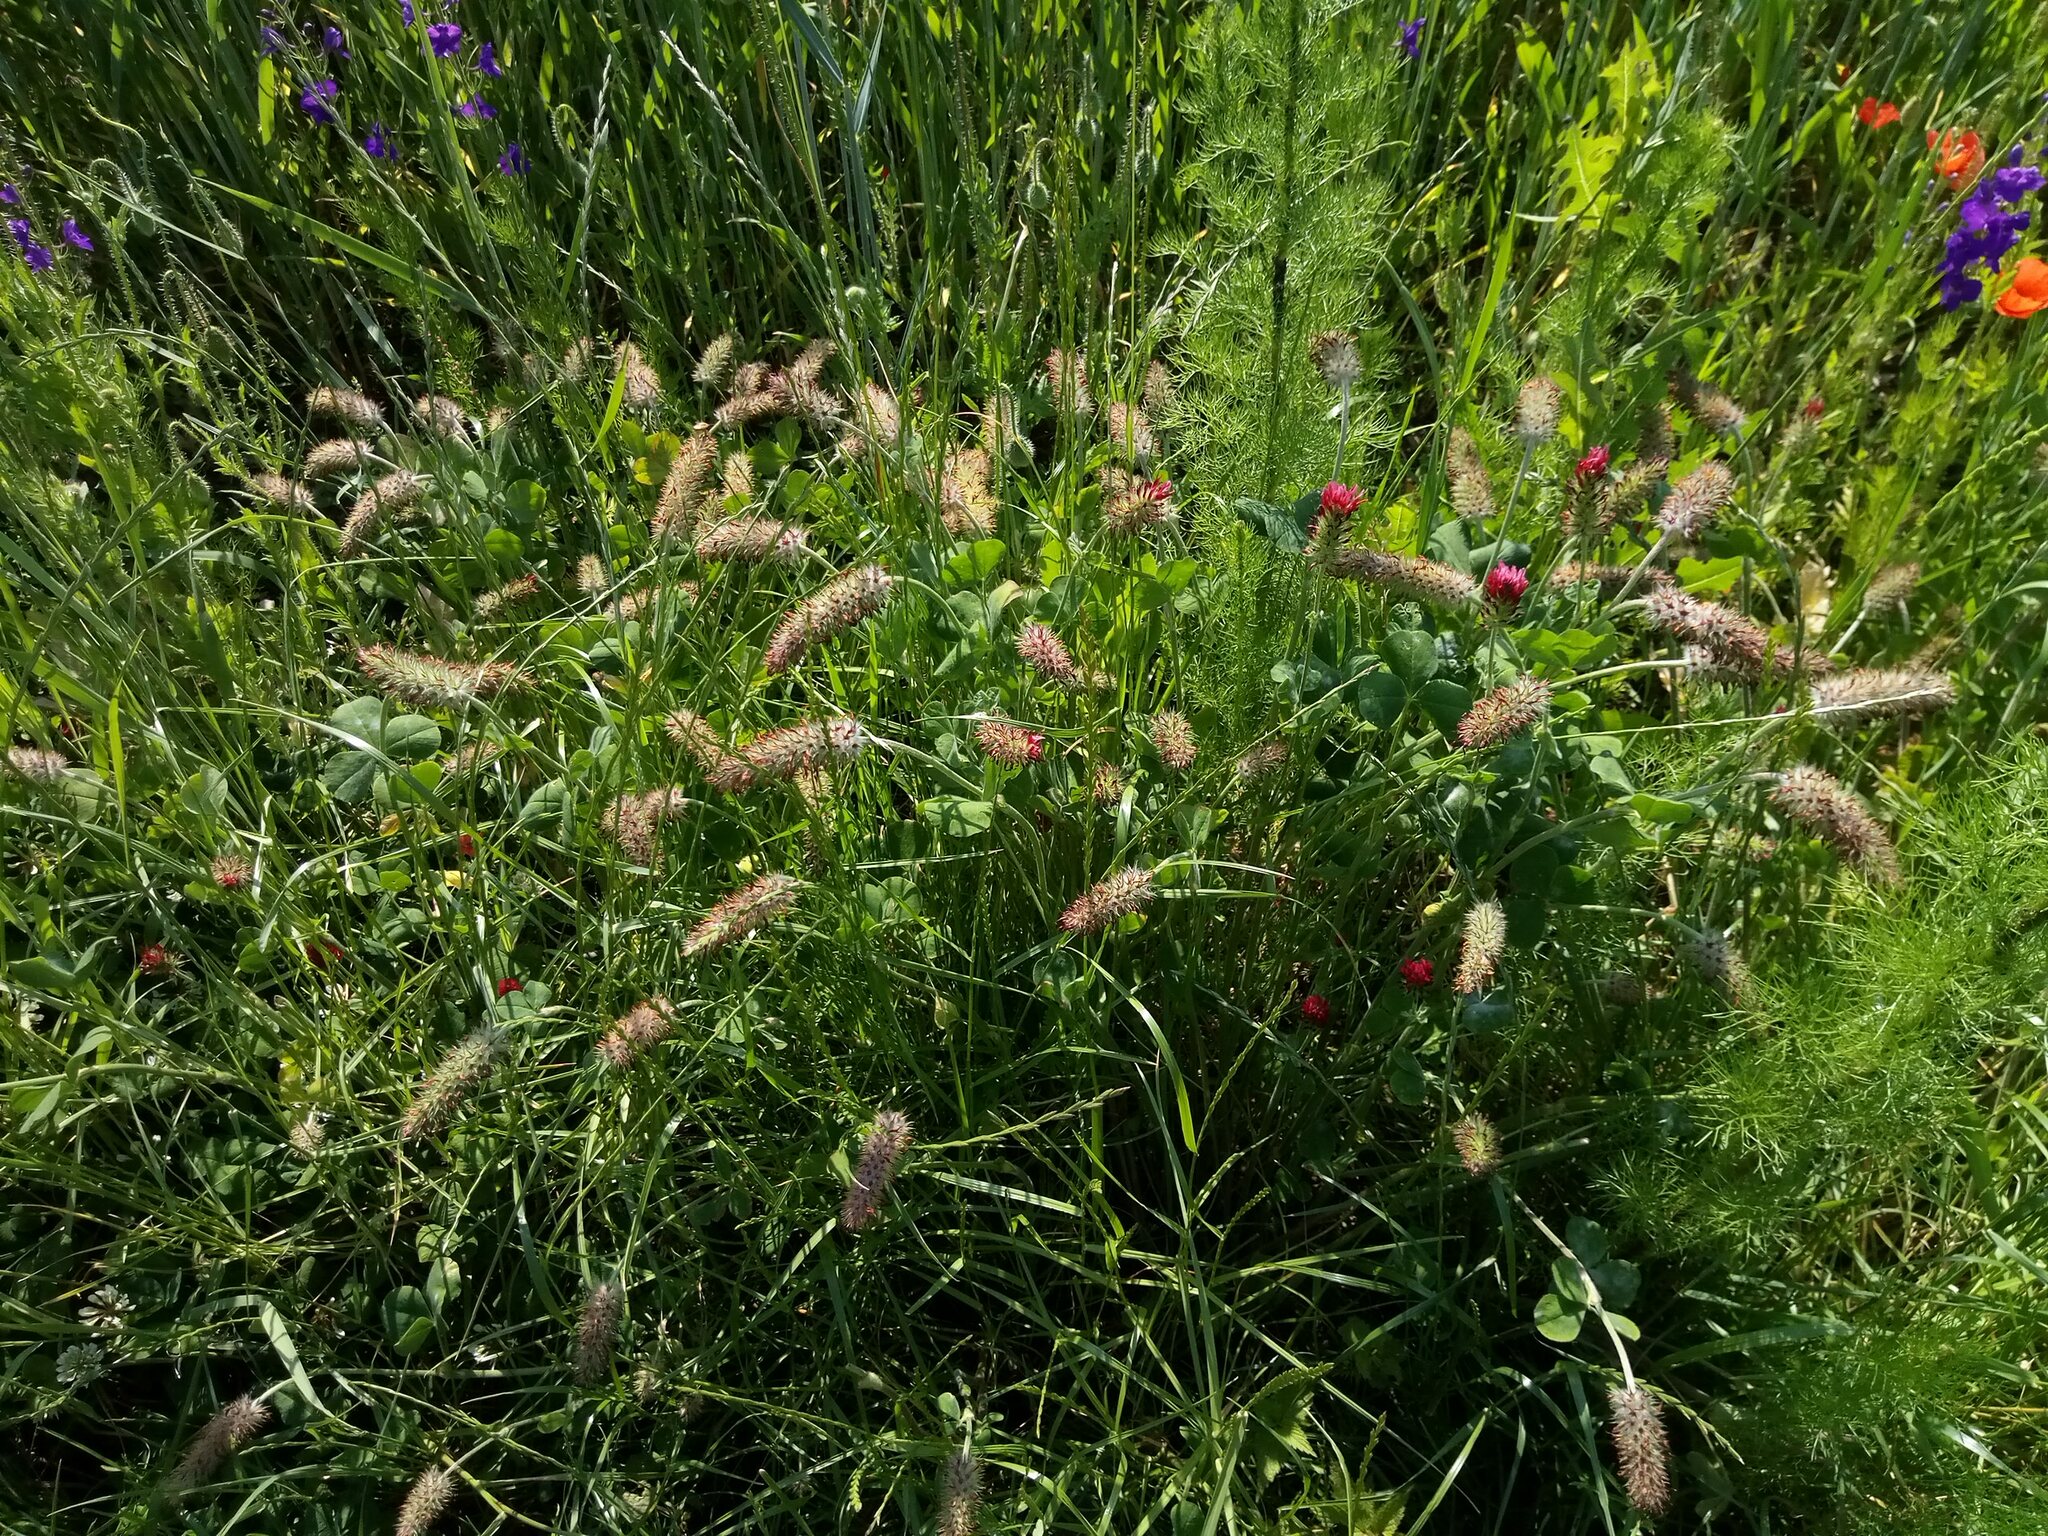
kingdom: Plantae
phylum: Tracheophyta
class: Magnoliopsida
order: Fabales
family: Fabaceae
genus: Trifolium
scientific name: Trifolium incarnatum
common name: Crimson clover
